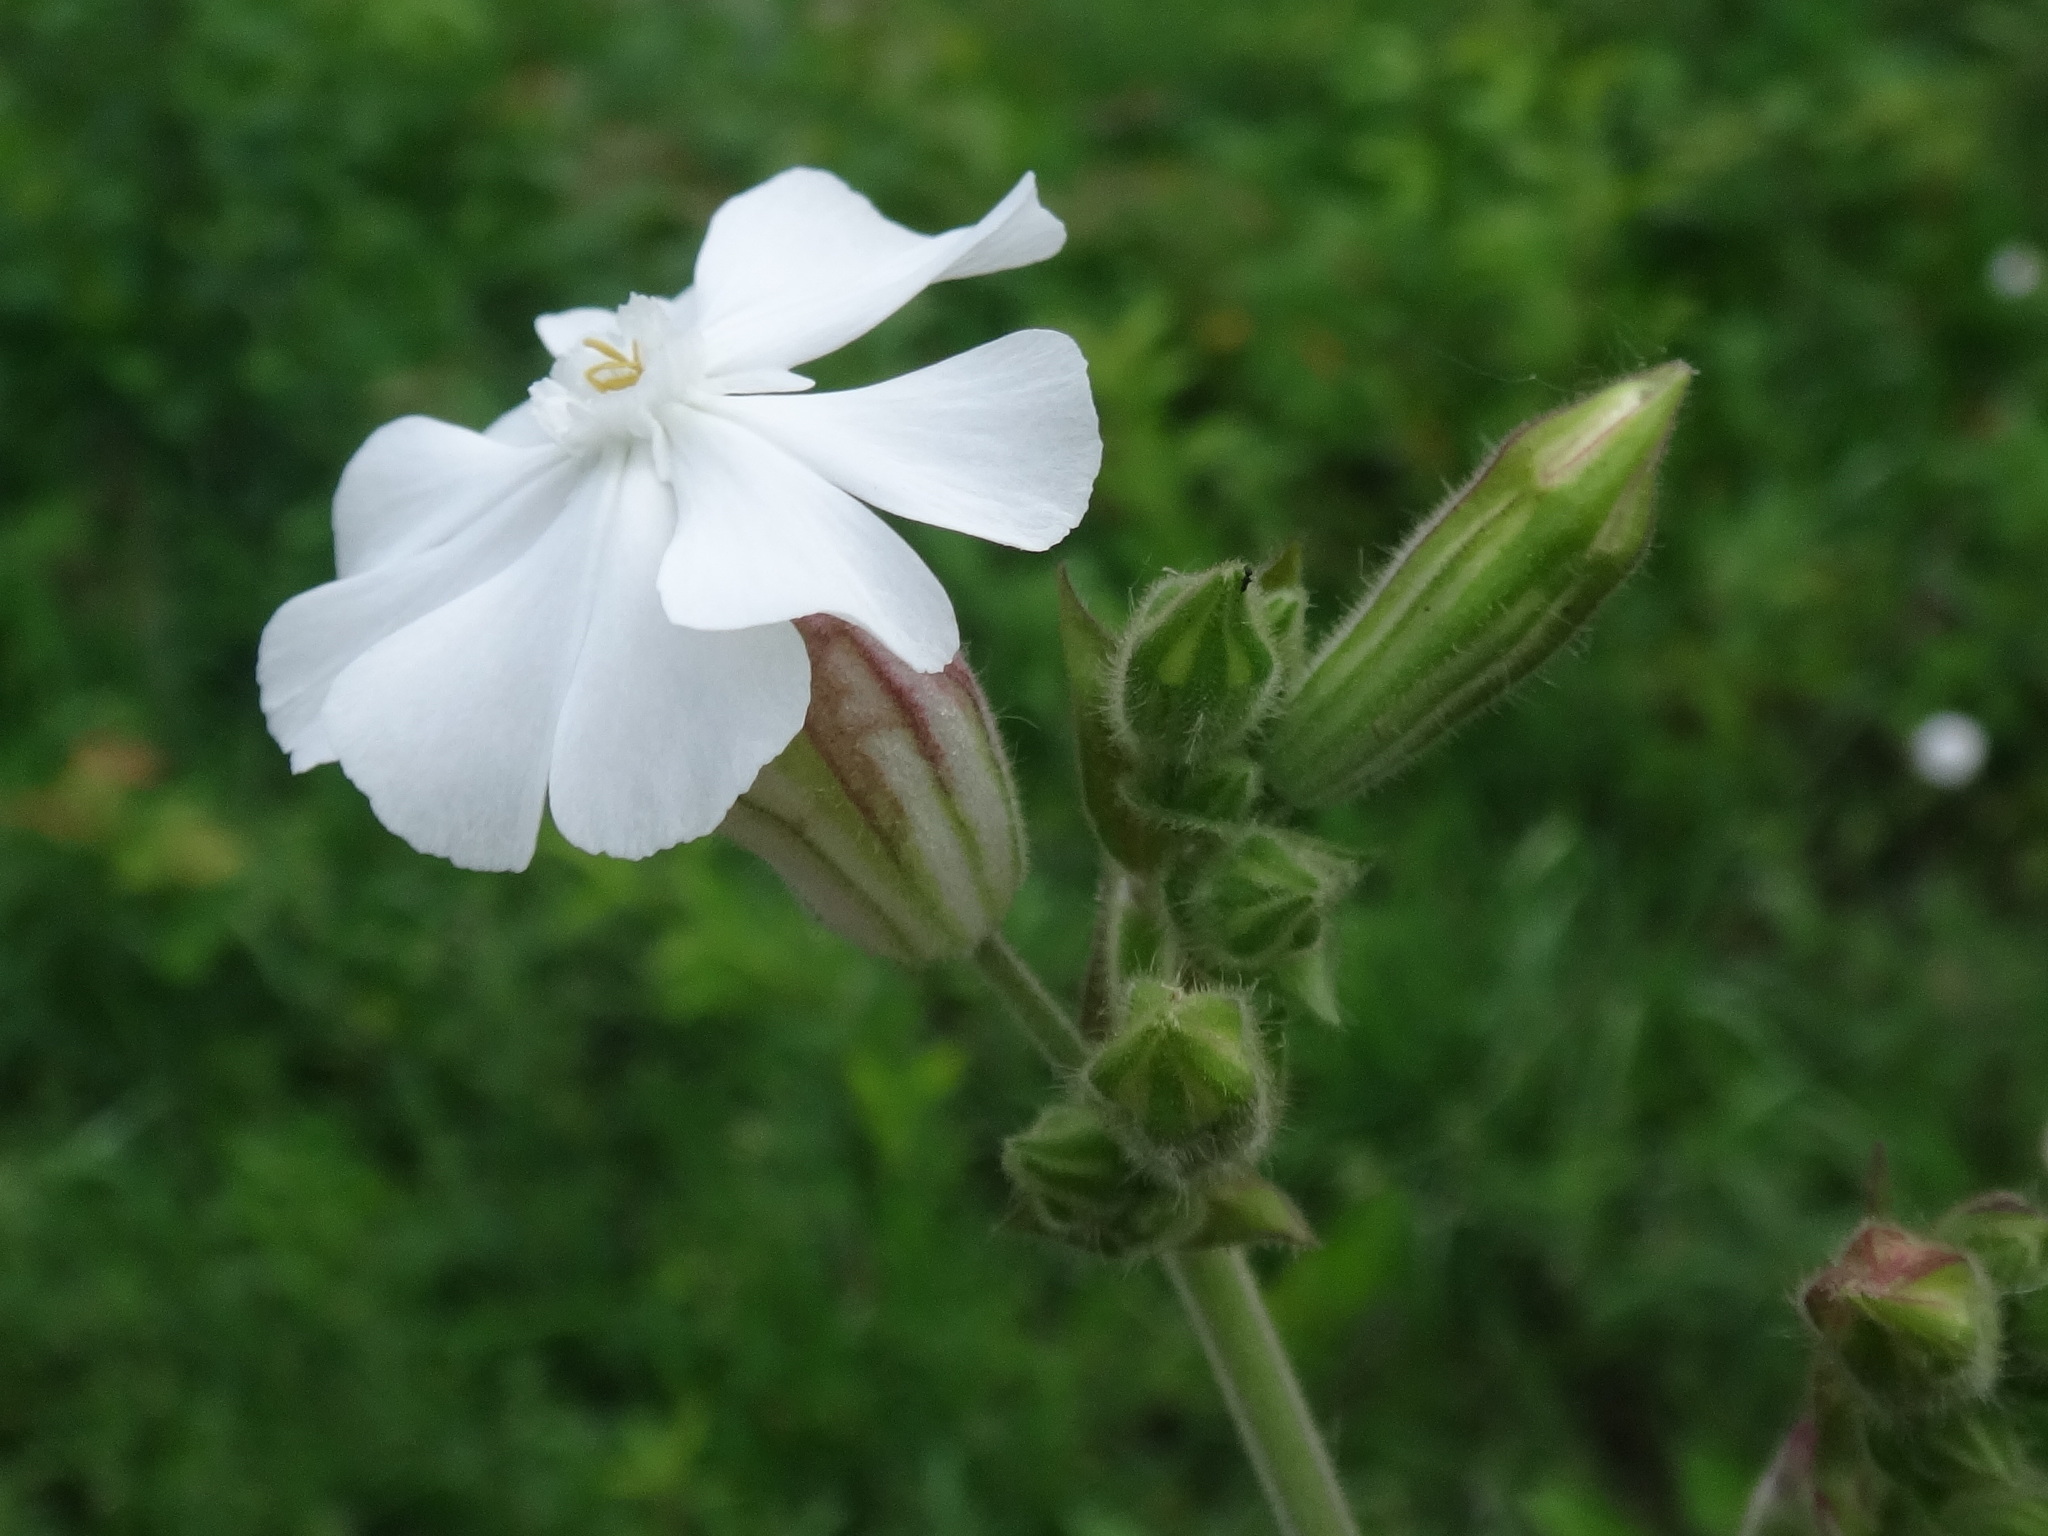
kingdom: Plantae
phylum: Tracheophyta
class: Magnoliopsida
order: Caryophyllales
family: Caryophyllaceae
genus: Silene
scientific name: Silene latifolia
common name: White campion
